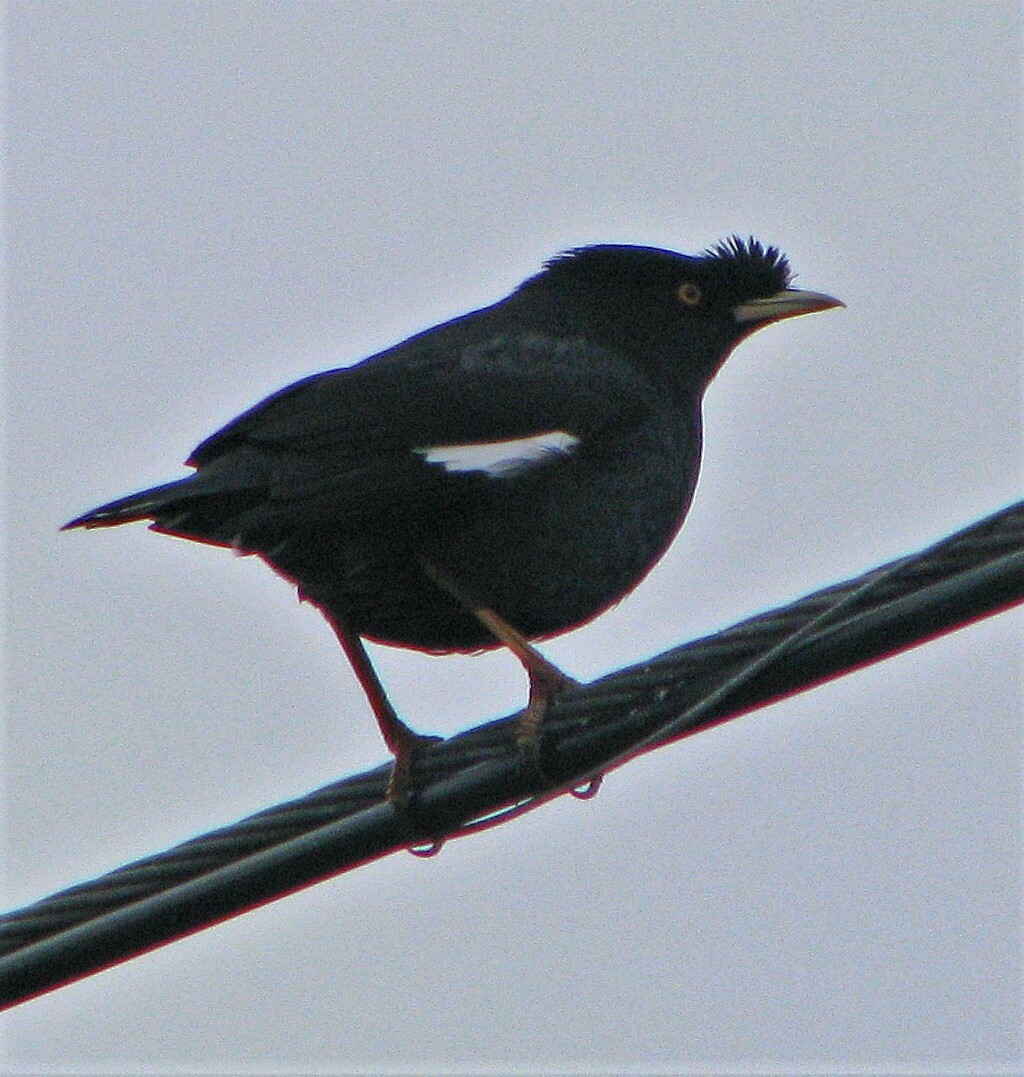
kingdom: Animalia
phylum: Chordata
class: Aves
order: Passeriformes
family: Sturnidae
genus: Acridotheres
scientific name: Acridotheres cristatellus
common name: Crested myna
